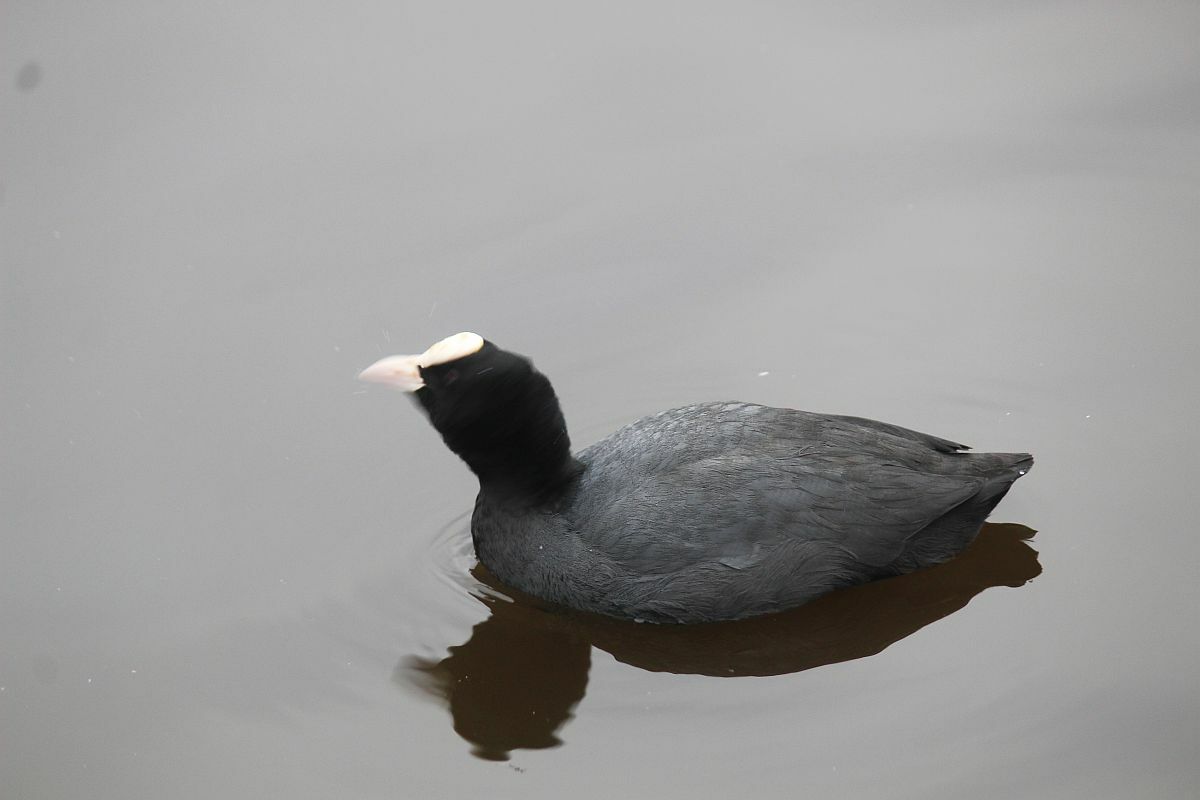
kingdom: Animalia
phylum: Chordata
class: Aves
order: Gruiformes
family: Rallidae
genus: Fulica
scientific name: Fulica atra
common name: Eurasian coot
